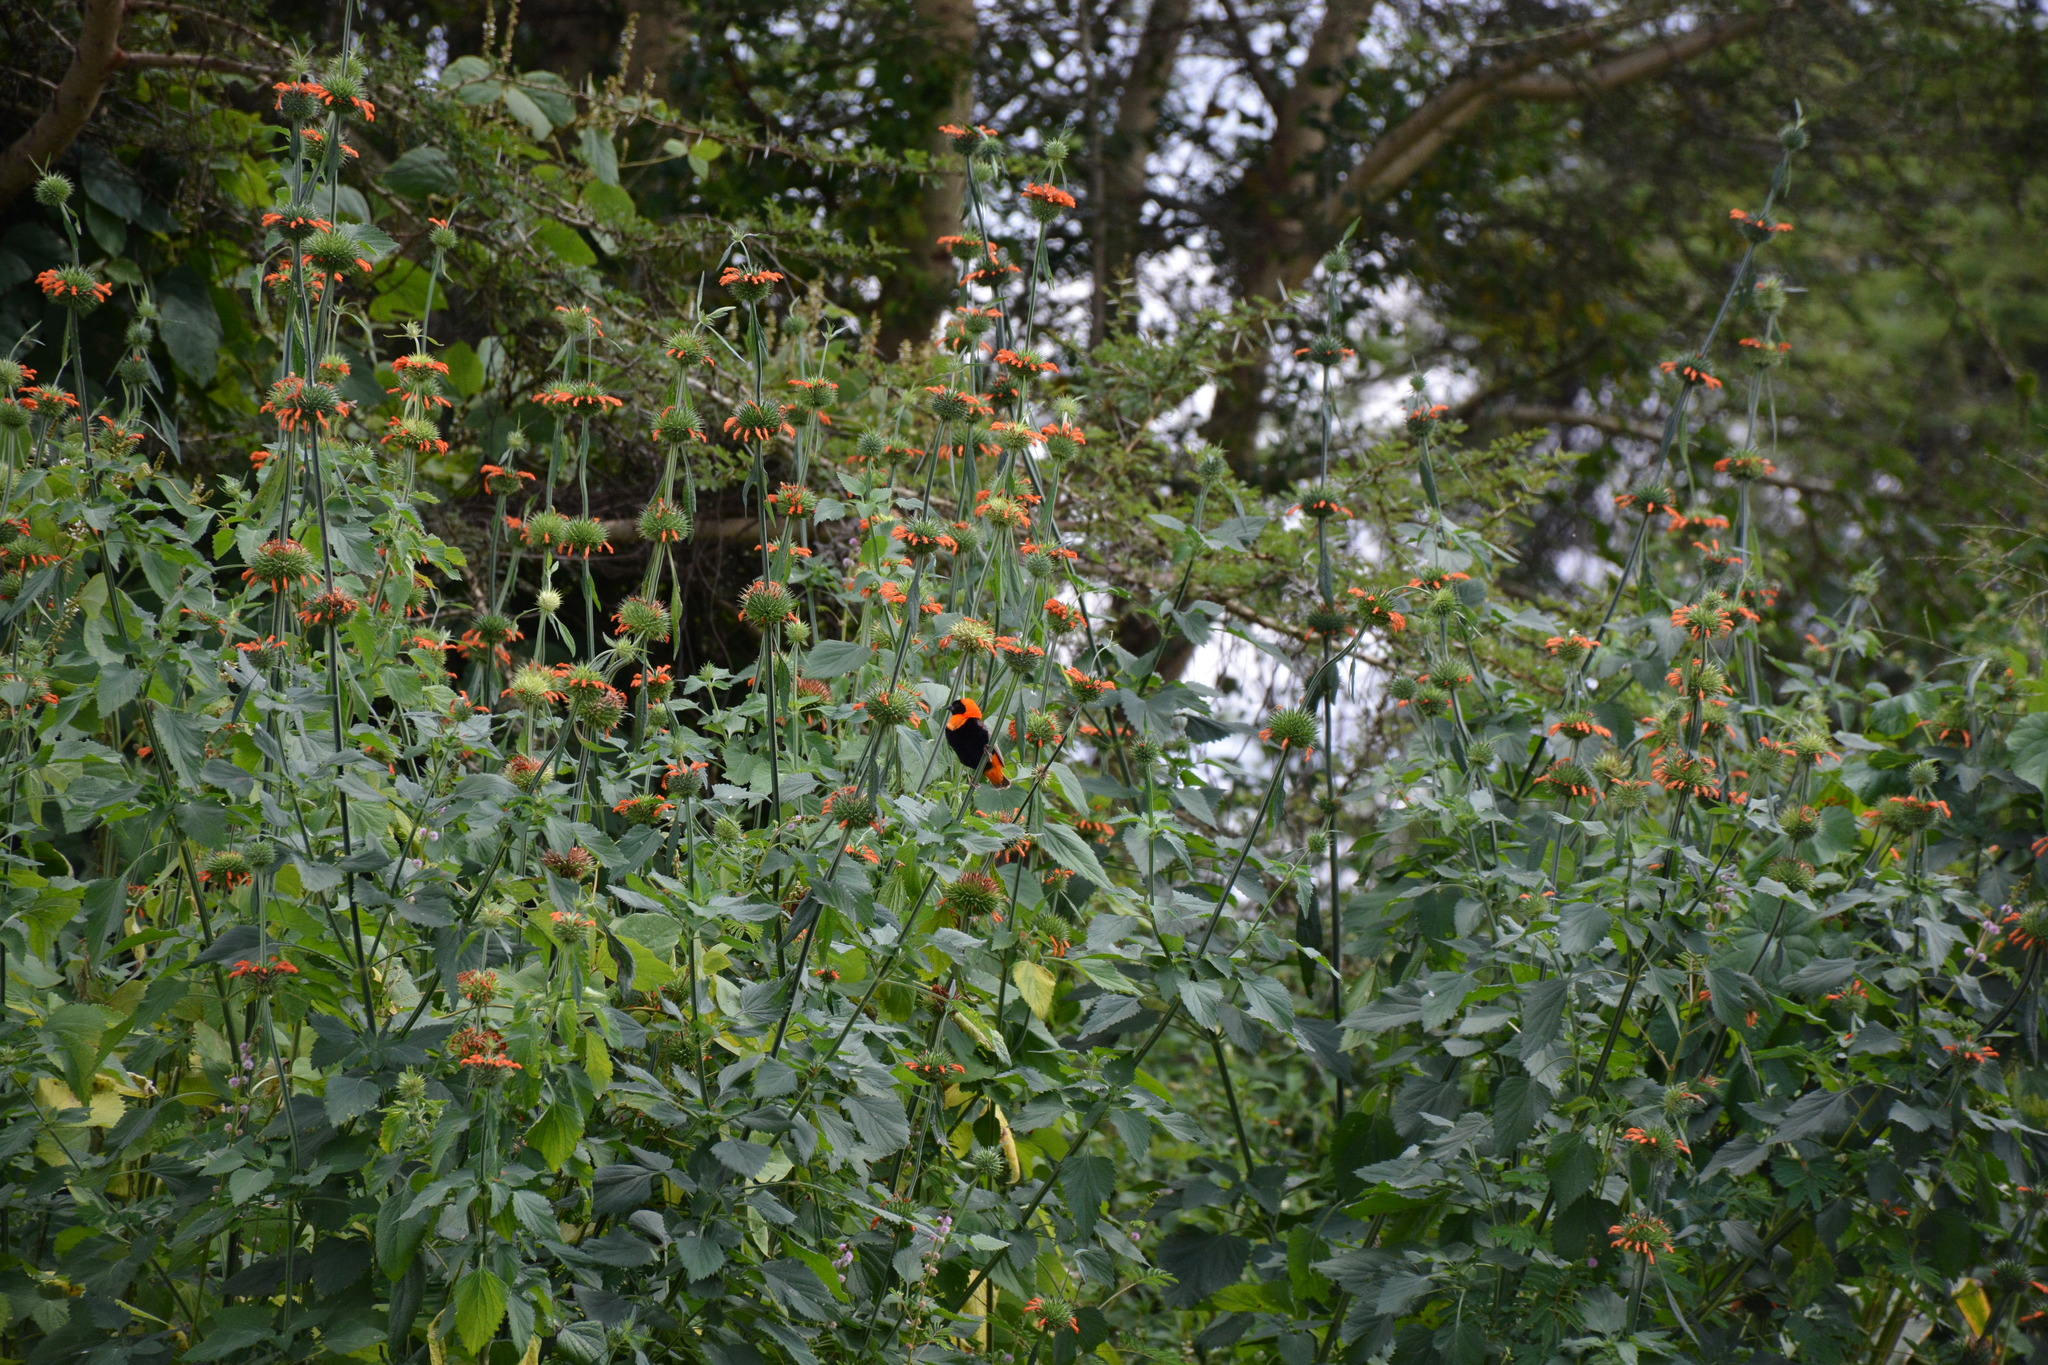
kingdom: Animalia
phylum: Chordata
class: Aves
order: Passeriformes
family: Ploceidae
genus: Euplectes
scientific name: Euplectes orix
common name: Southern red bishop
